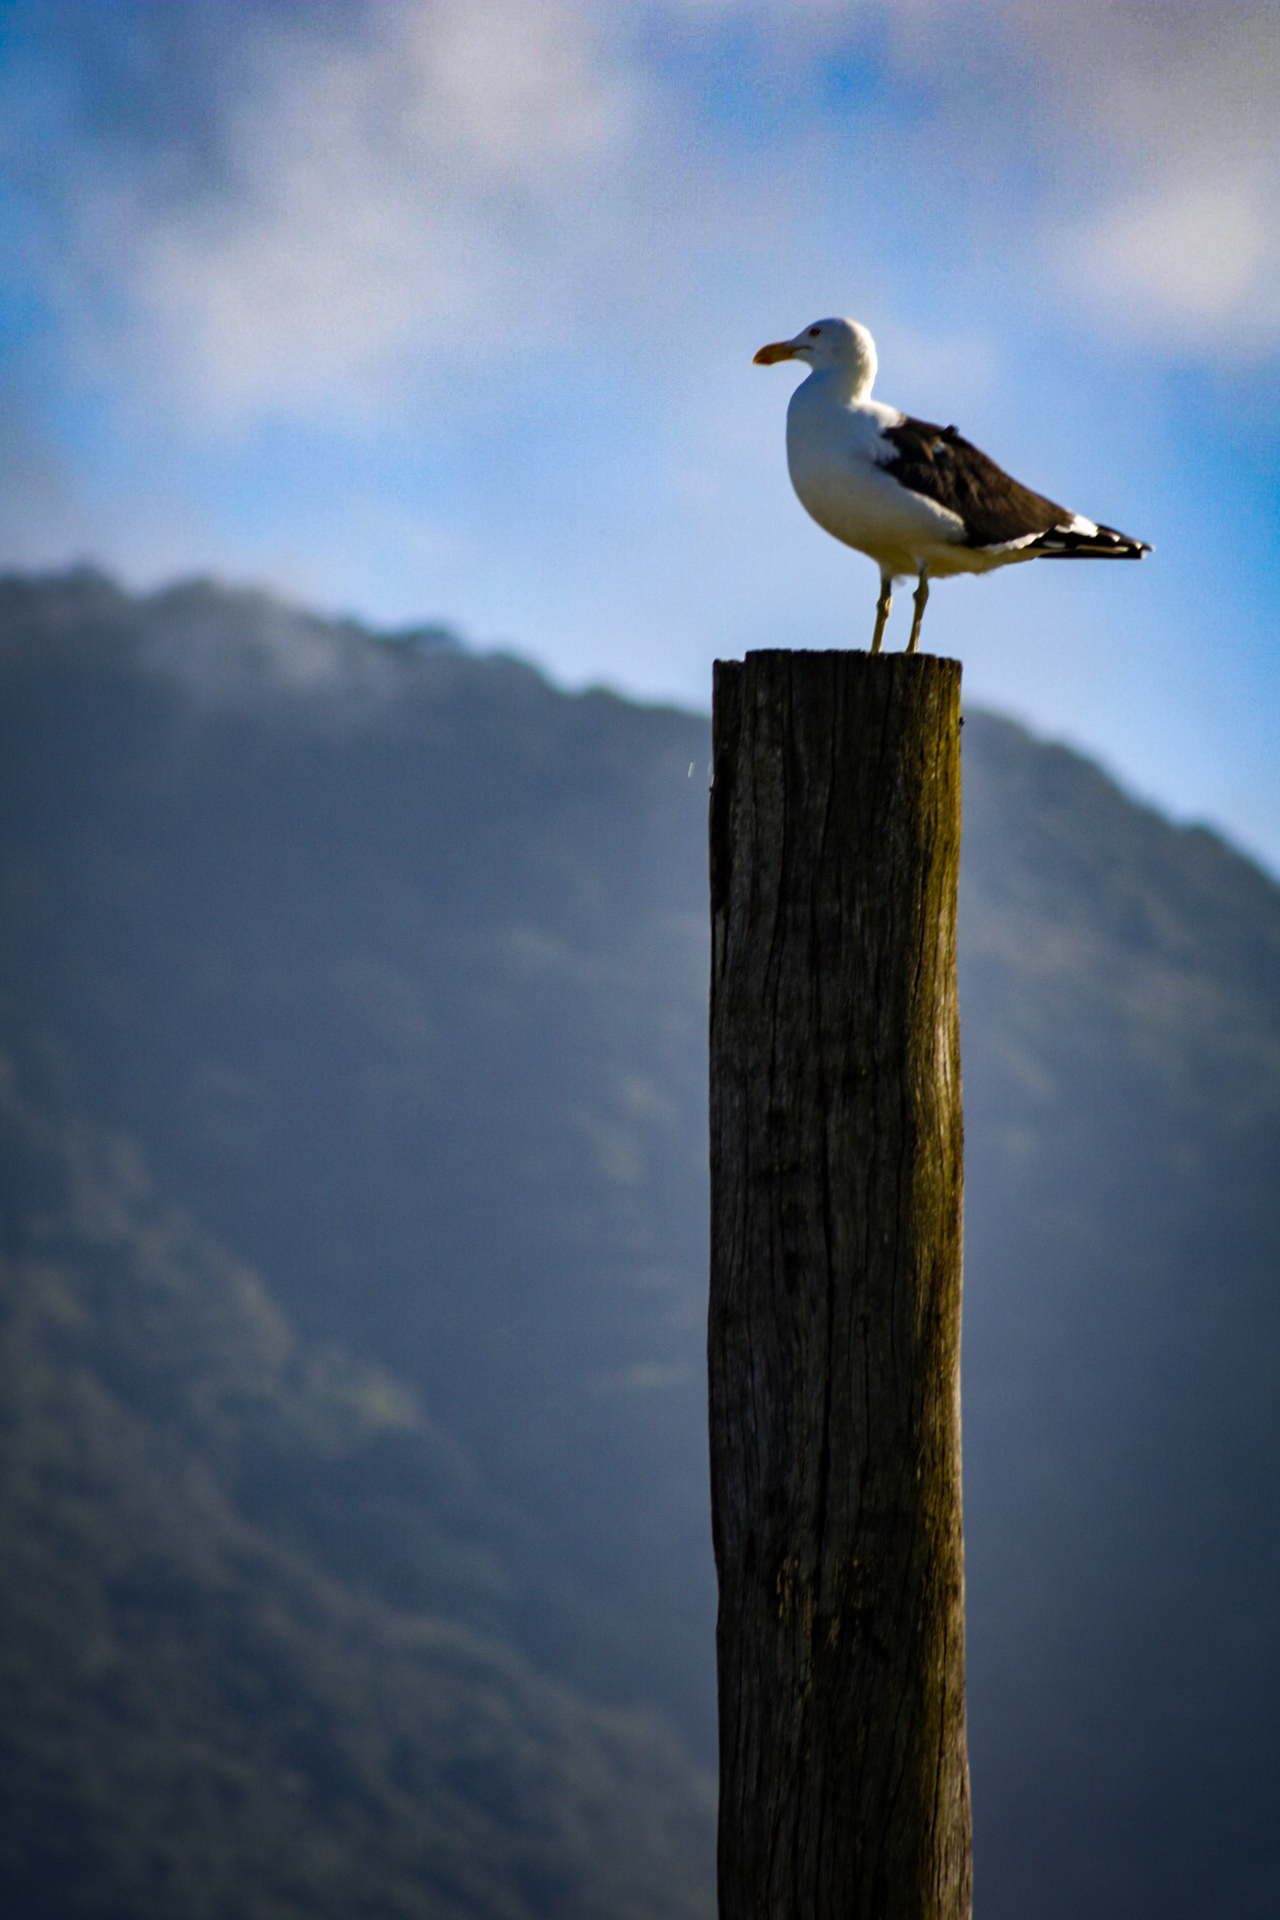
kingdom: Animalia
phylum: Chordata
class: Aves
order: Charadriiformes
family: Laridae
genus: Larus
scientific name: Larus dominicanus
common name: Kelp gull
